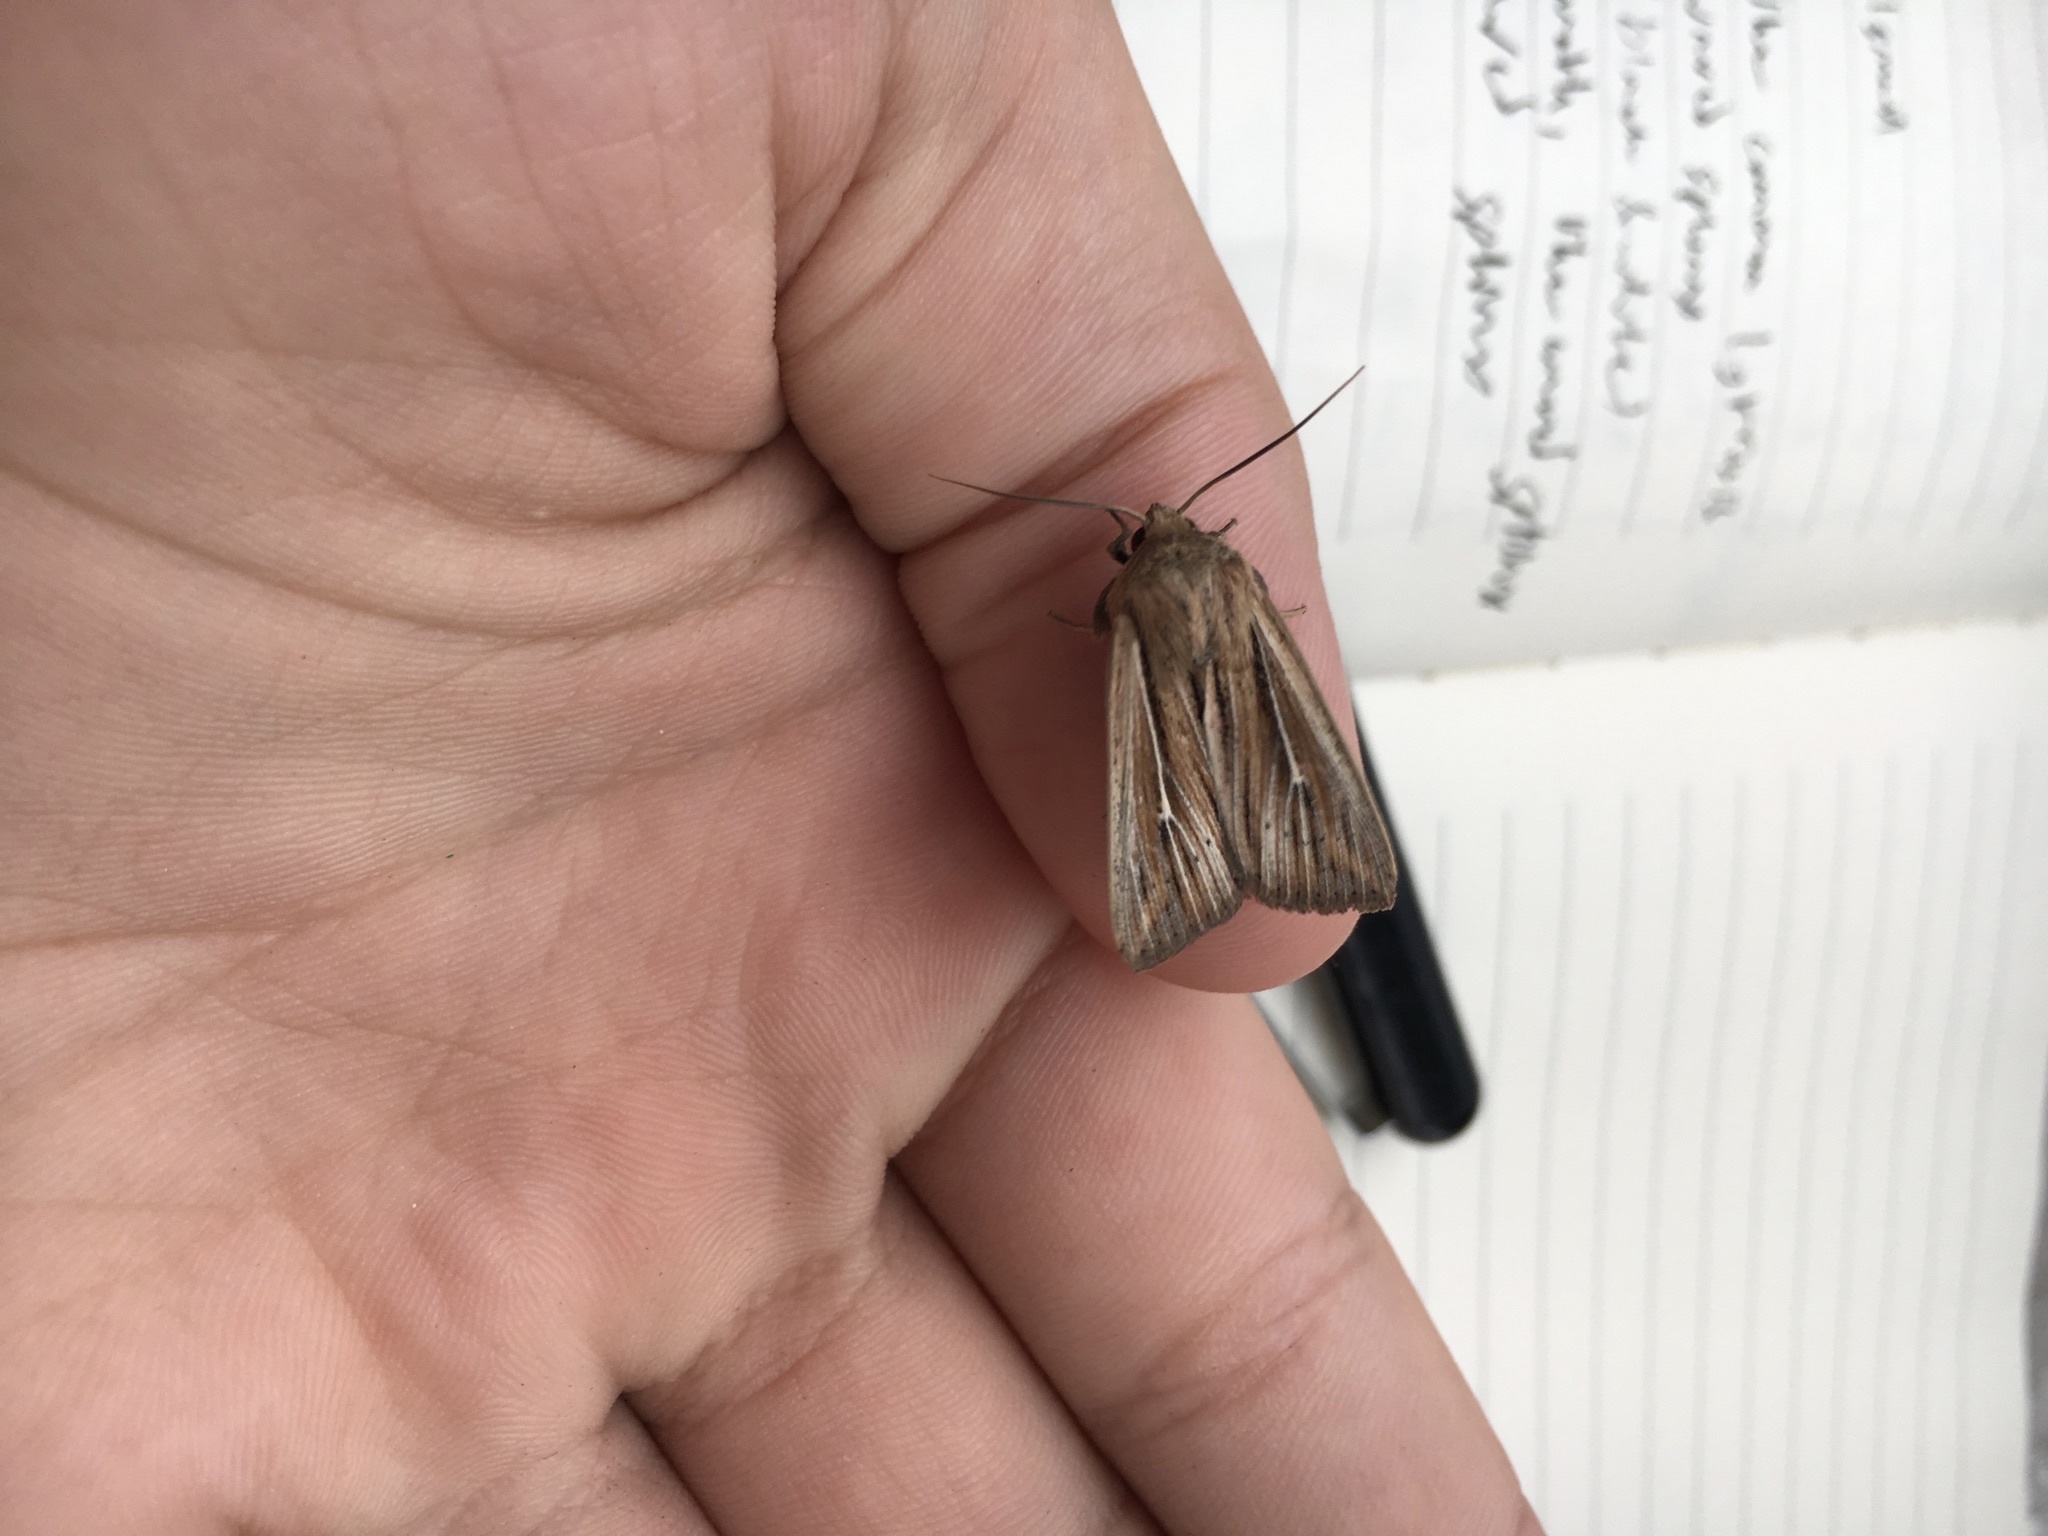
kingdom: Animalia
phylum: Arthropoda
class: Insecta
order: Lepidoptera
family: Noctuidae
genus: Leucania
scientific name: Leucania commoides
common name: Two-lined wainscot
